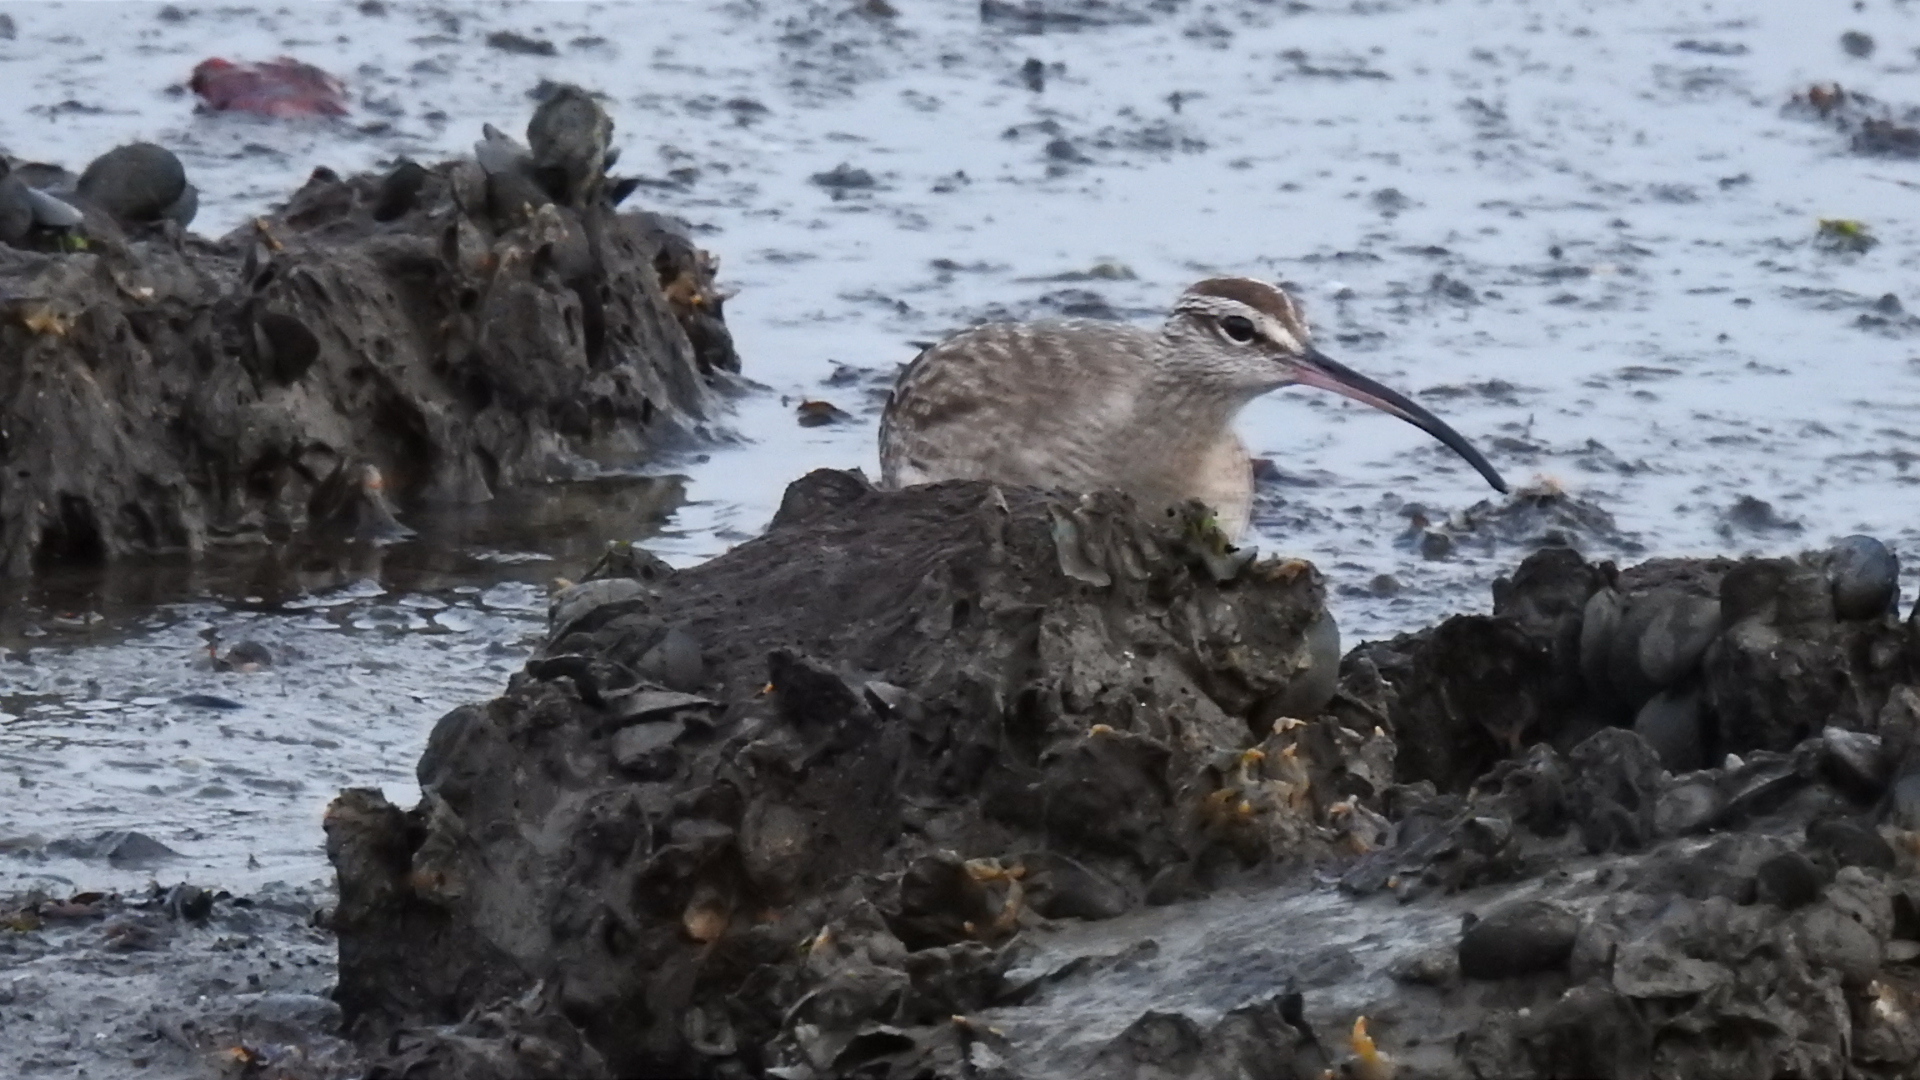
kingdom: Animalia
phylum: Chordata
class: Aves
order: Charadriiformes
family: Scolopacidae
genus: Numenius
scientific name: Numenius phaeopus
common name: Whimbrel
